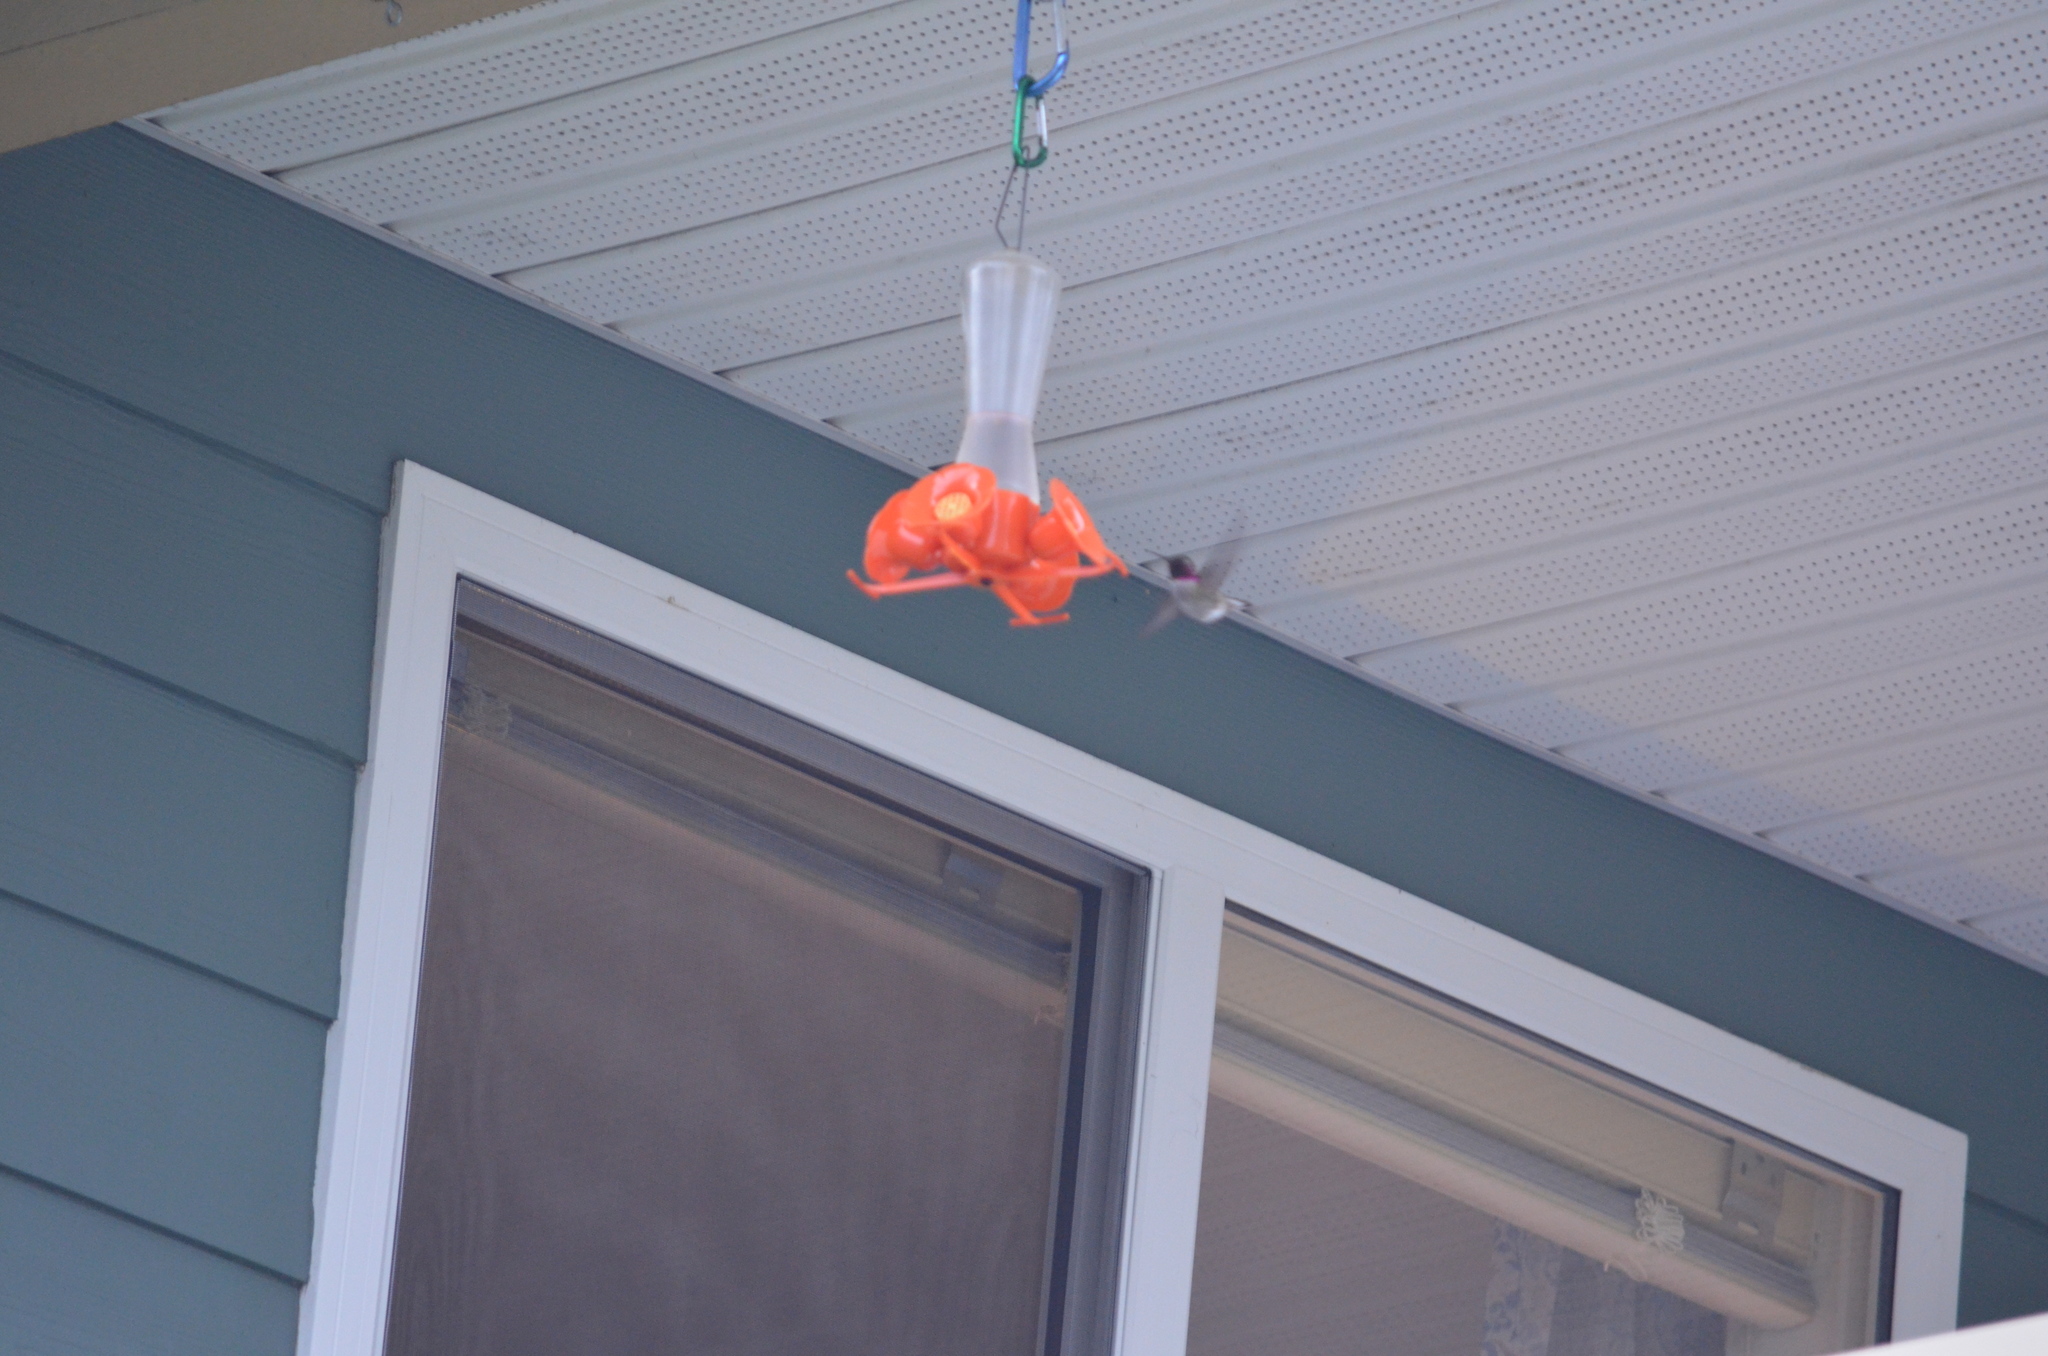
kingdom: Animalia
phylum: Chordata
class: Aves
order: Apodiformes
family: Trochilidae
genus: Calypte
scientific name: Calypte anna
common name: Anna's hummingbird
